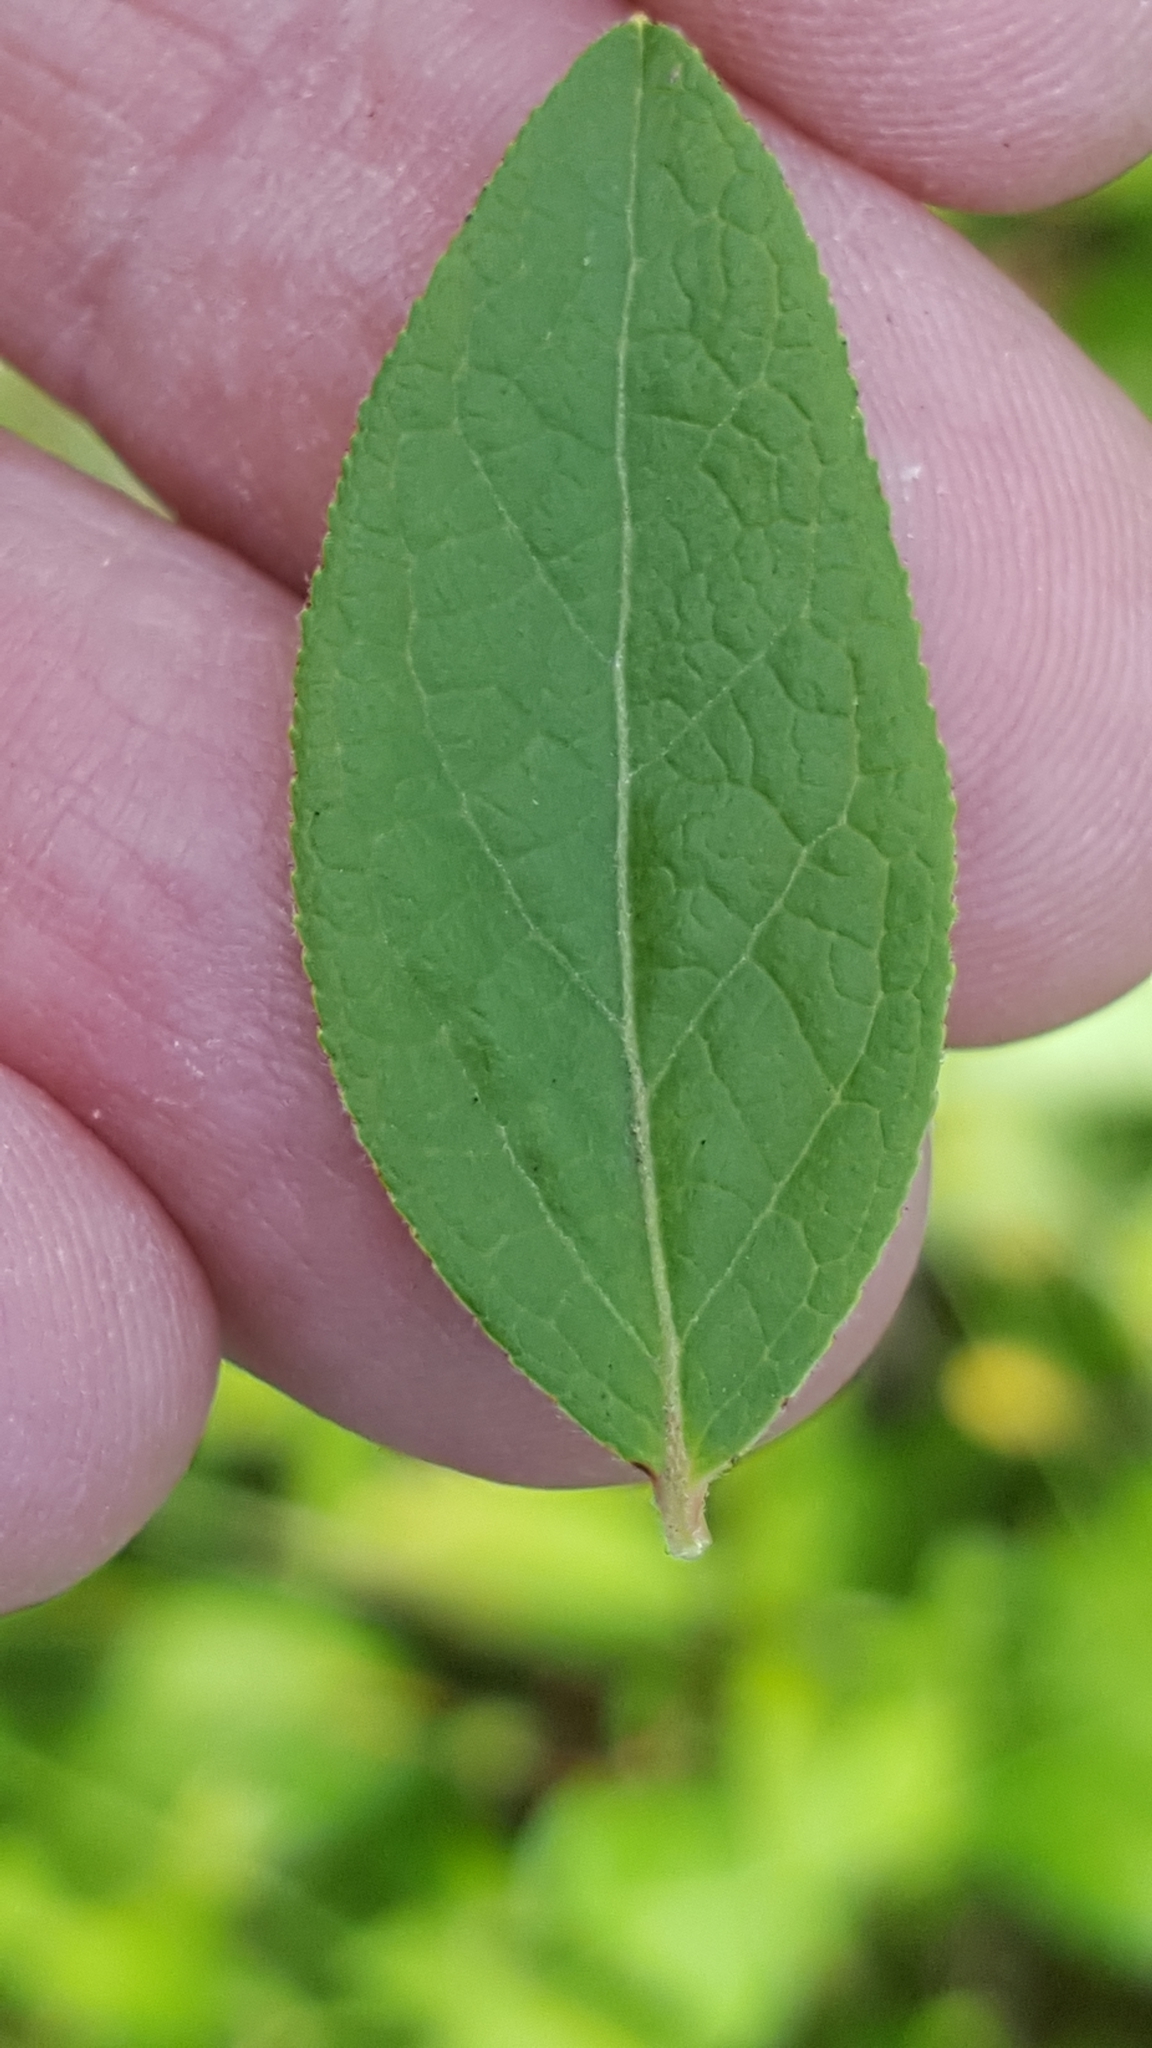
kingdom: Plantae
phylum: Tracheophyta
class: Magnoliopsida
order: Ericales
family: Ericaceae
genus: Vaccinium
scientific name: Vaccinium angustifolium
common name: Early lowbush blueberry
